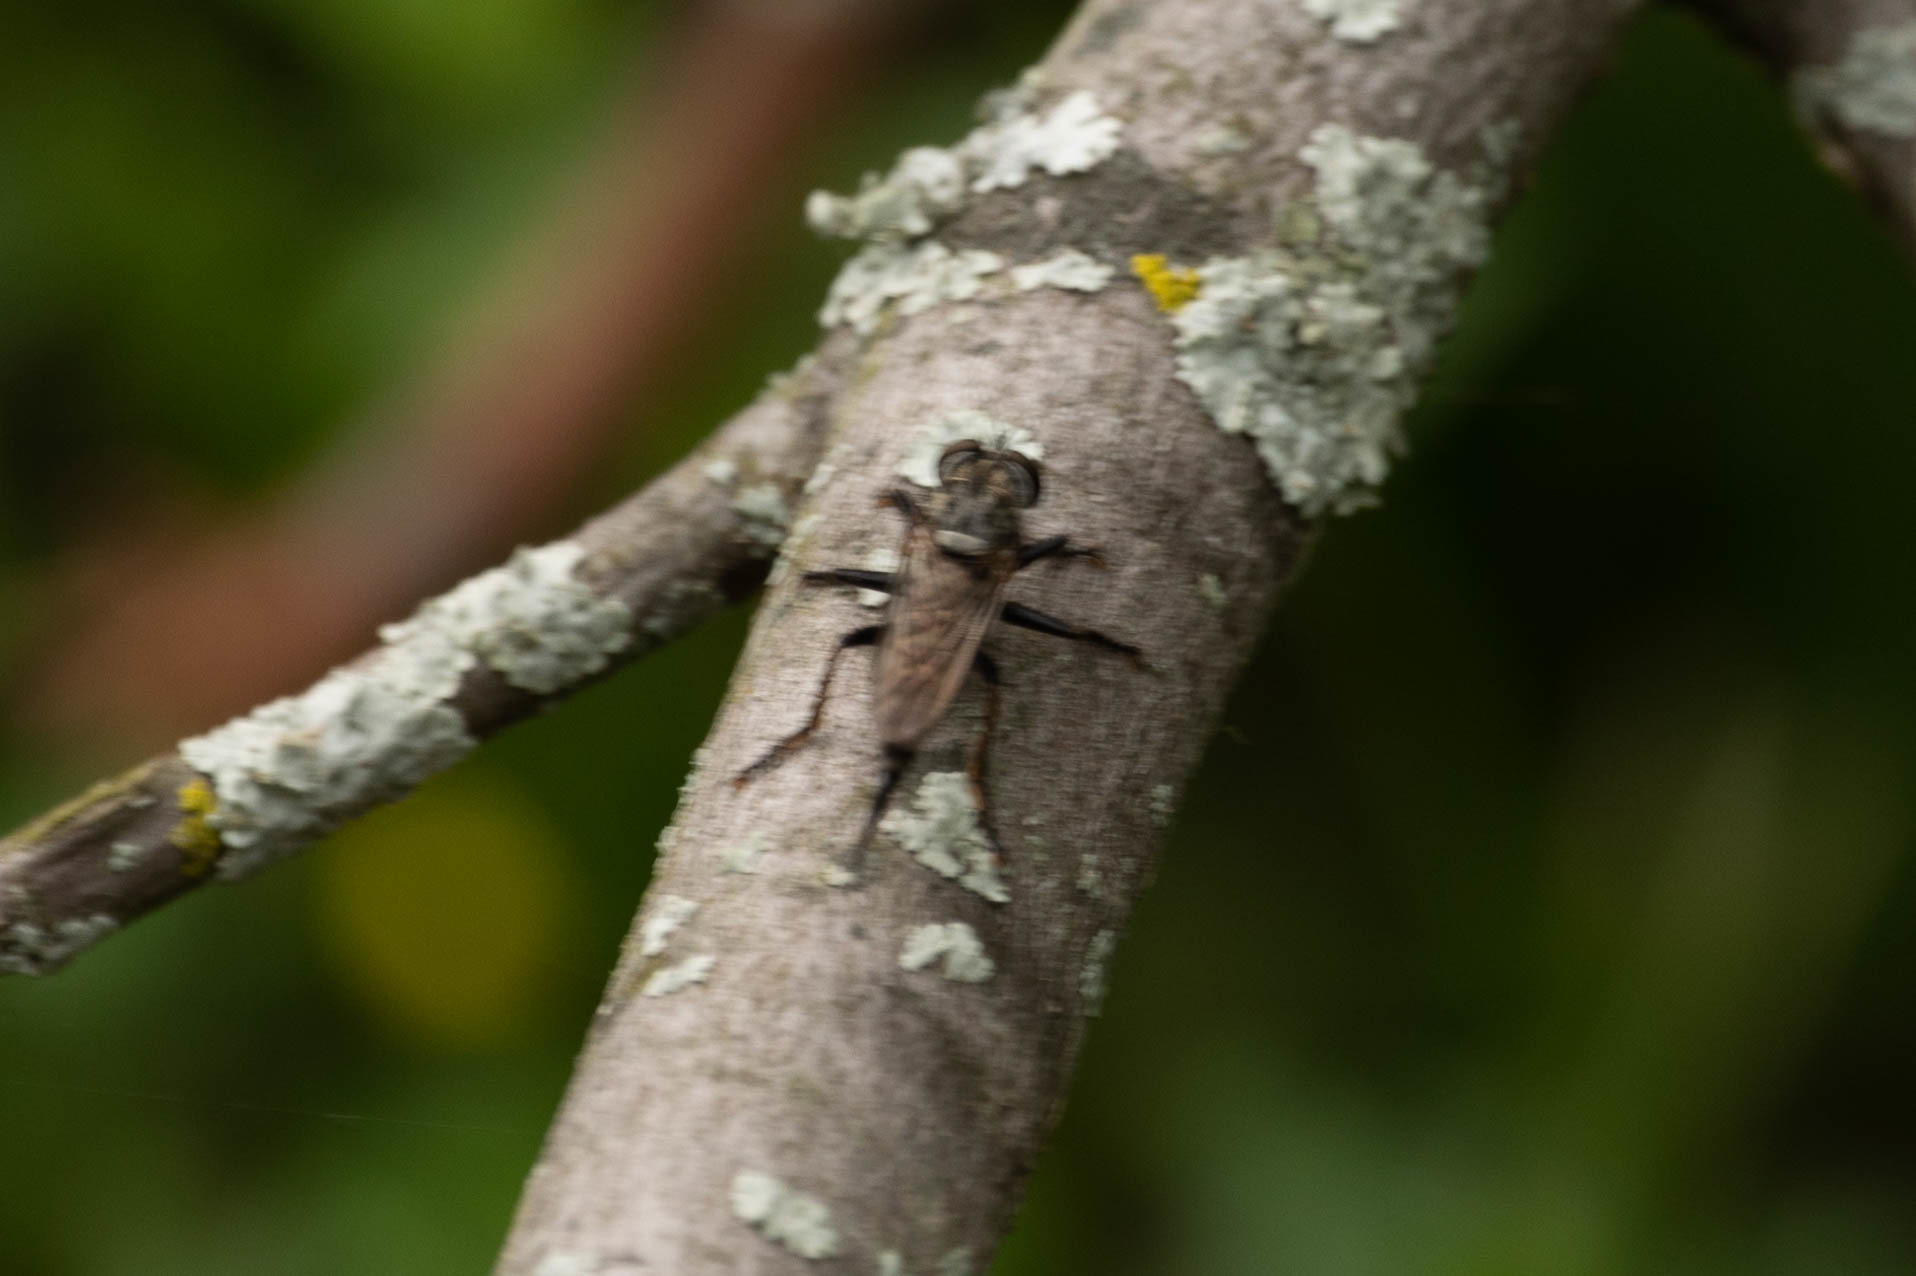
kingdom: Animalia
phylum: Arthropoda
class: Insecta
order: Diptera
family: Asilidae
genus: Efferia
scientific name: Efferia aestuans
